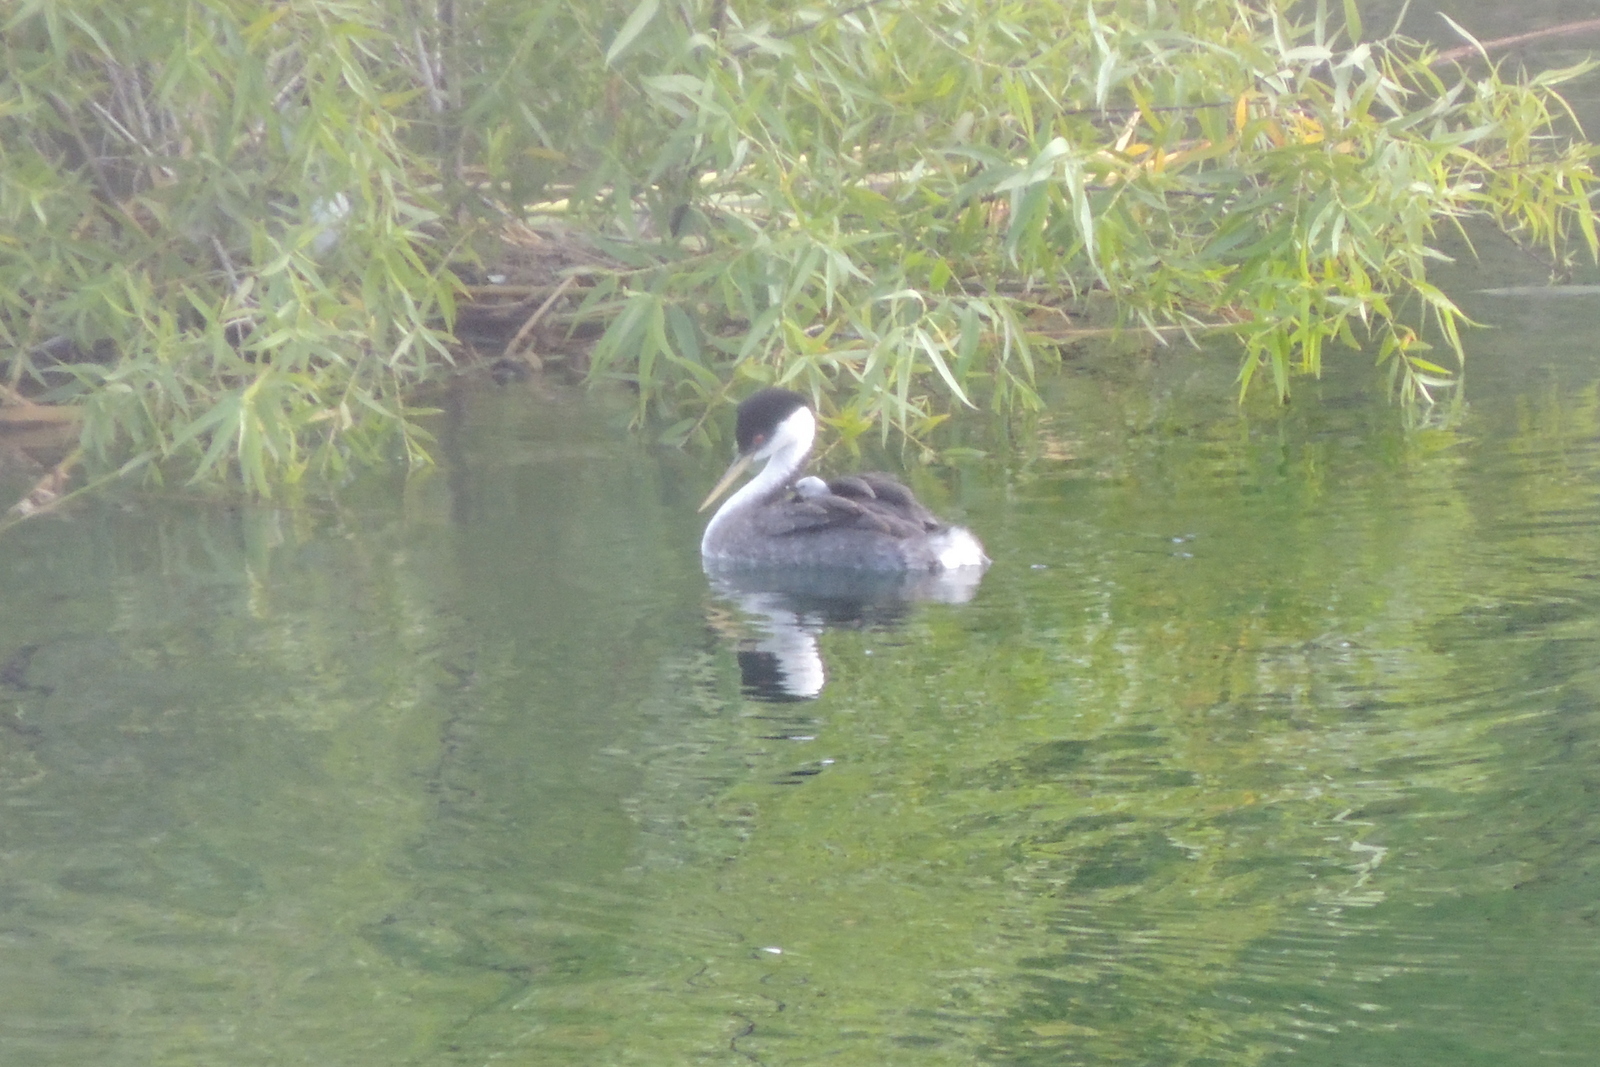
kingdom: Animalia
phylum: Chordata
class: Aves
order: Podicipediformes
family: Podicipedidae
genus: Aechmophorus
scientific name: Aechmophorus occidentalis
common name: Western grebe
